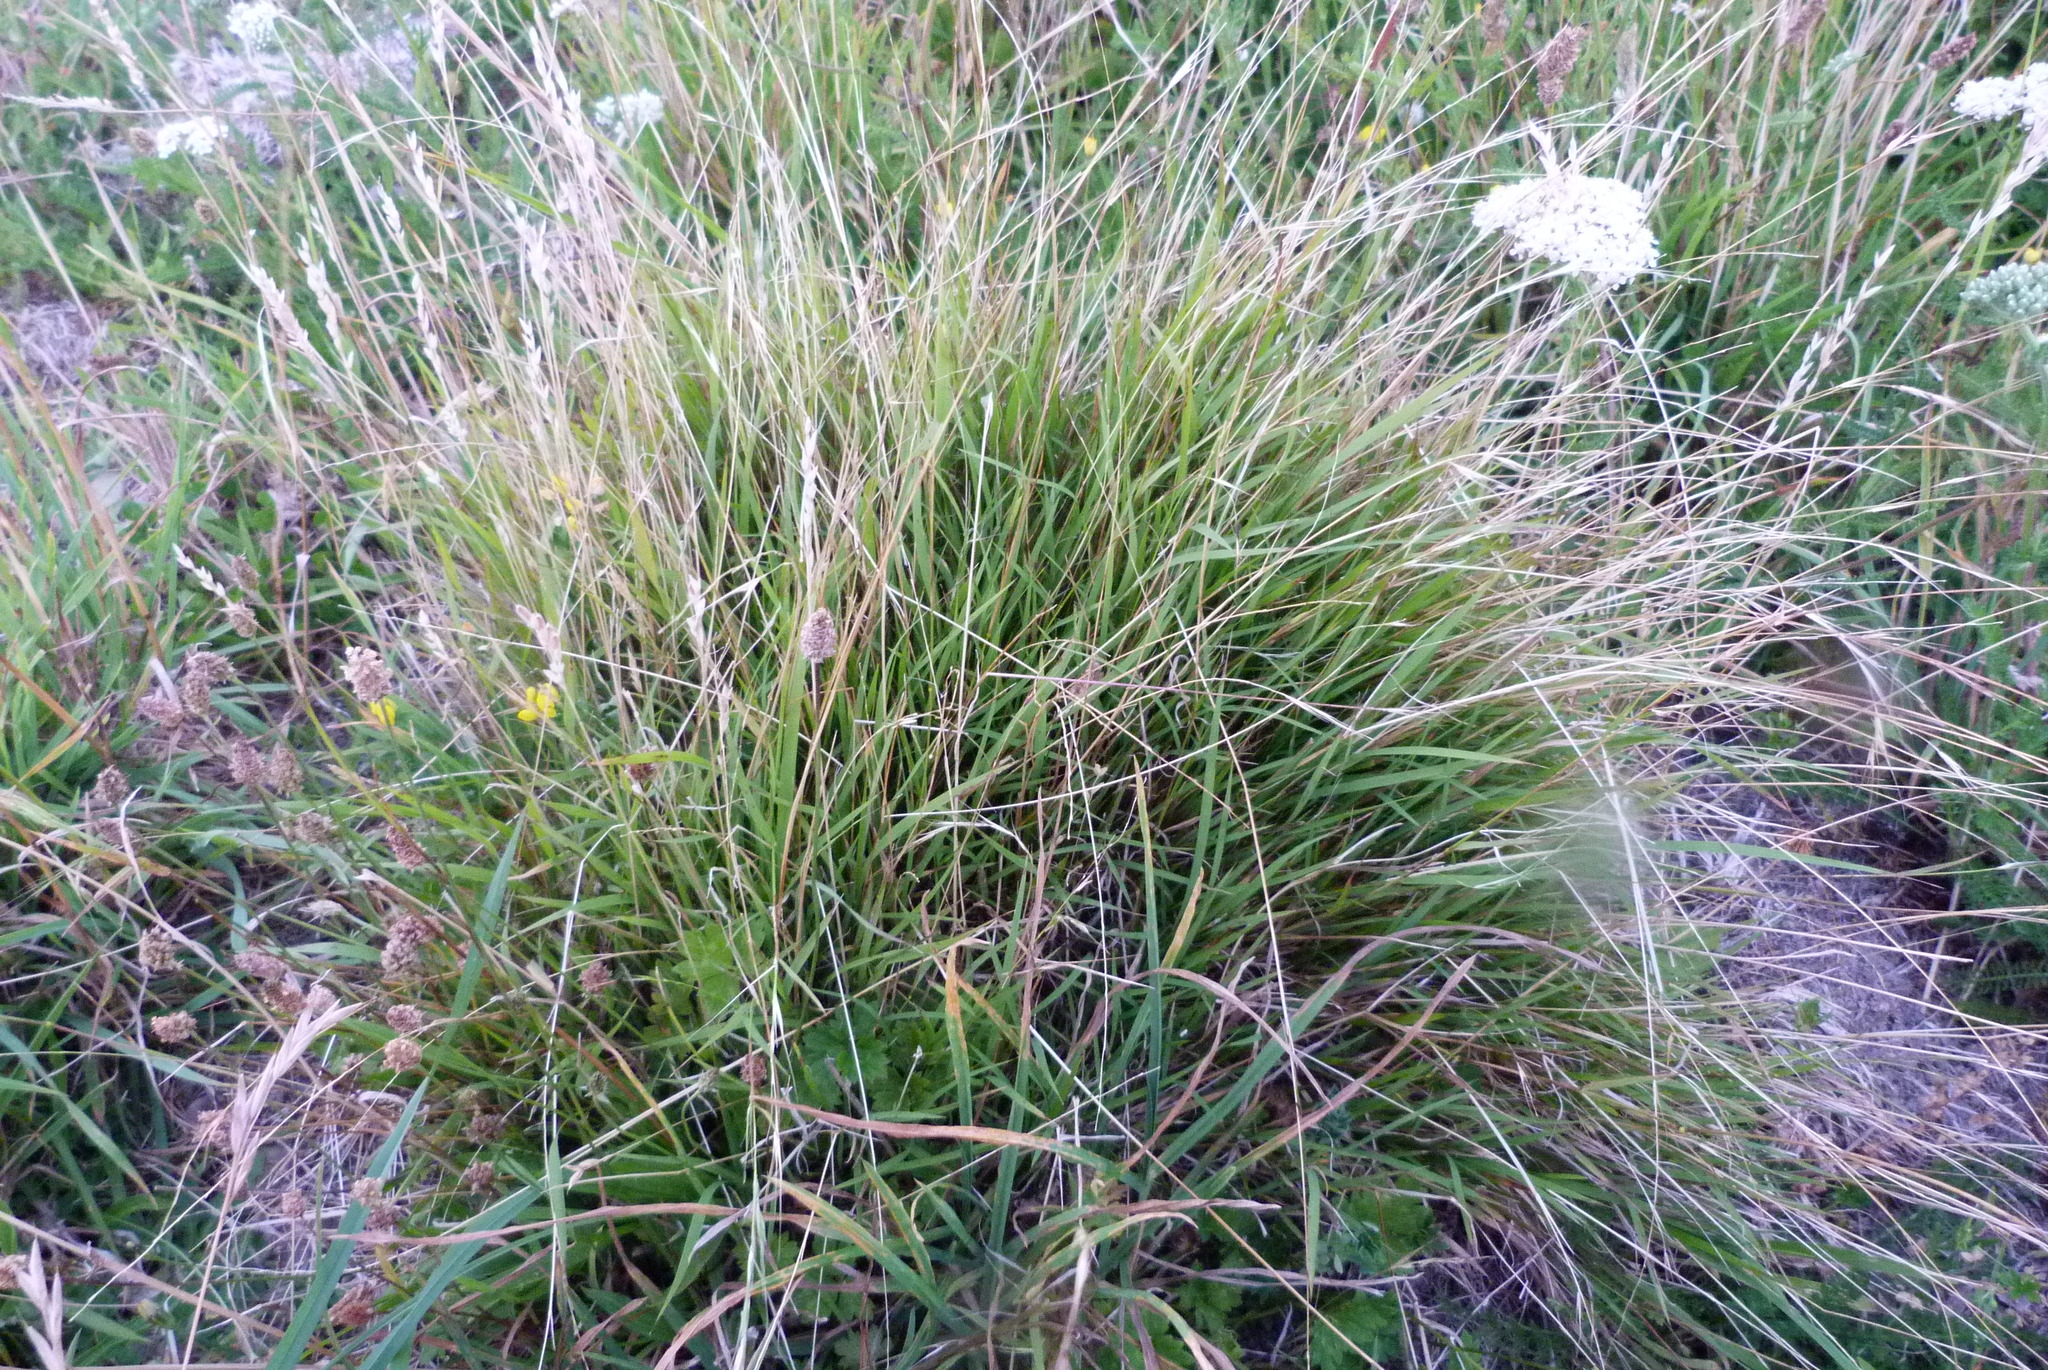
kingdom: Plantae
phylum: Tracheophyta
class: Liliopsida
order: Poales
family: Poaceae
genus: Microlaena
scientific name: Microlaena stipoides
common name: Meadow ricegrass
